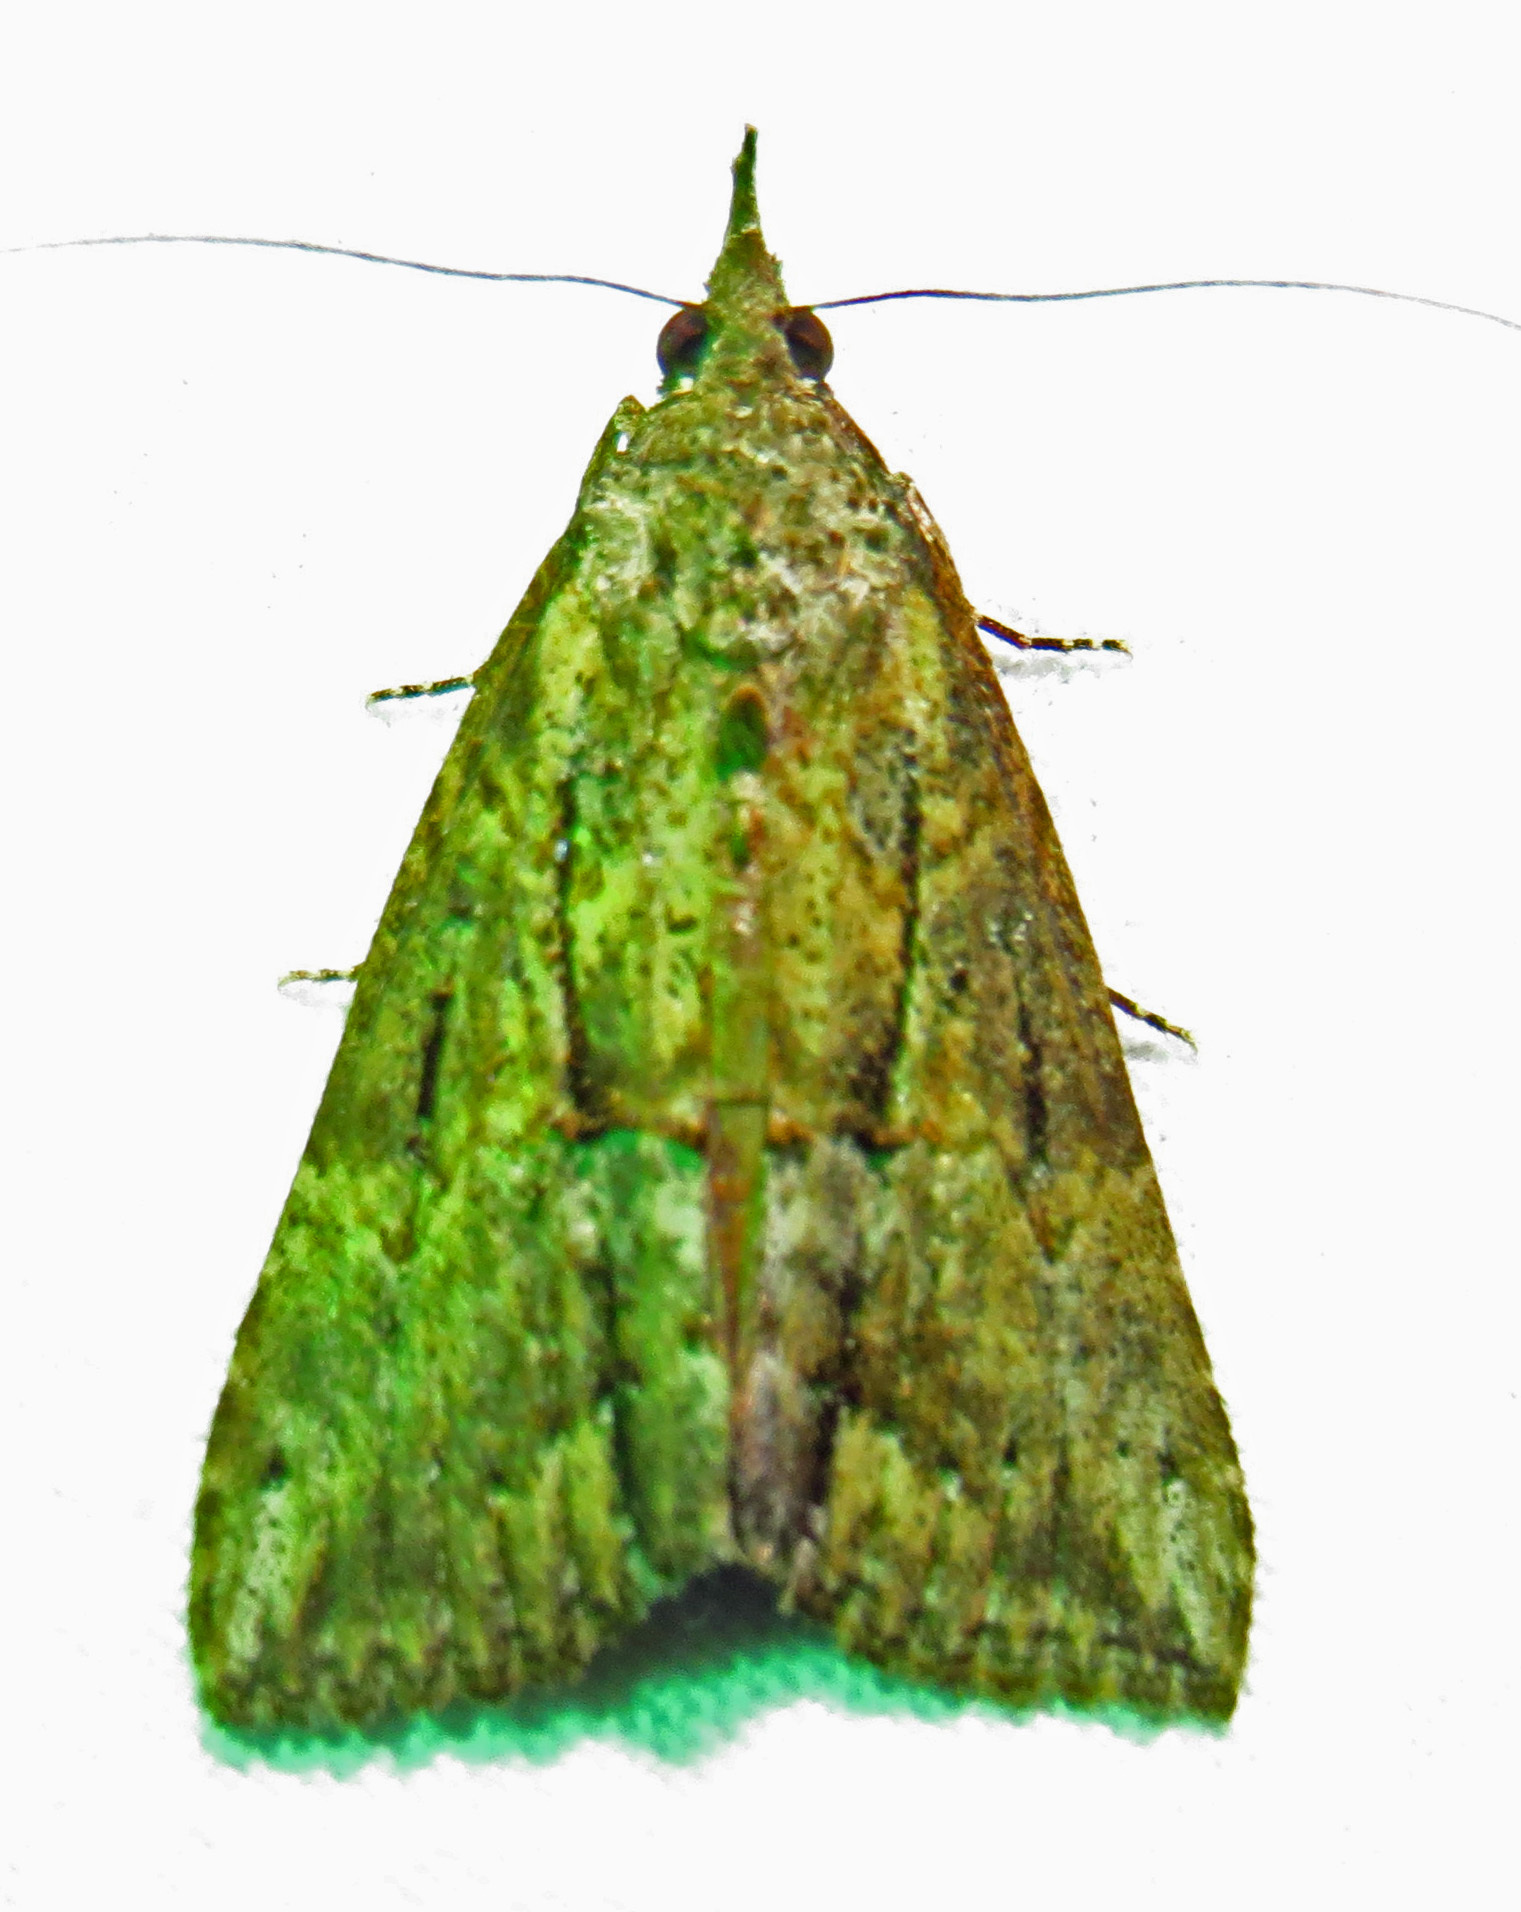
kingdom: Animalia
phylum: Arthropoda
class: Insecta
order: Lepidoptera
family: Erebidae
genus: Hypena
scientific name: Hypena scabra
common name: Green cloverworm
